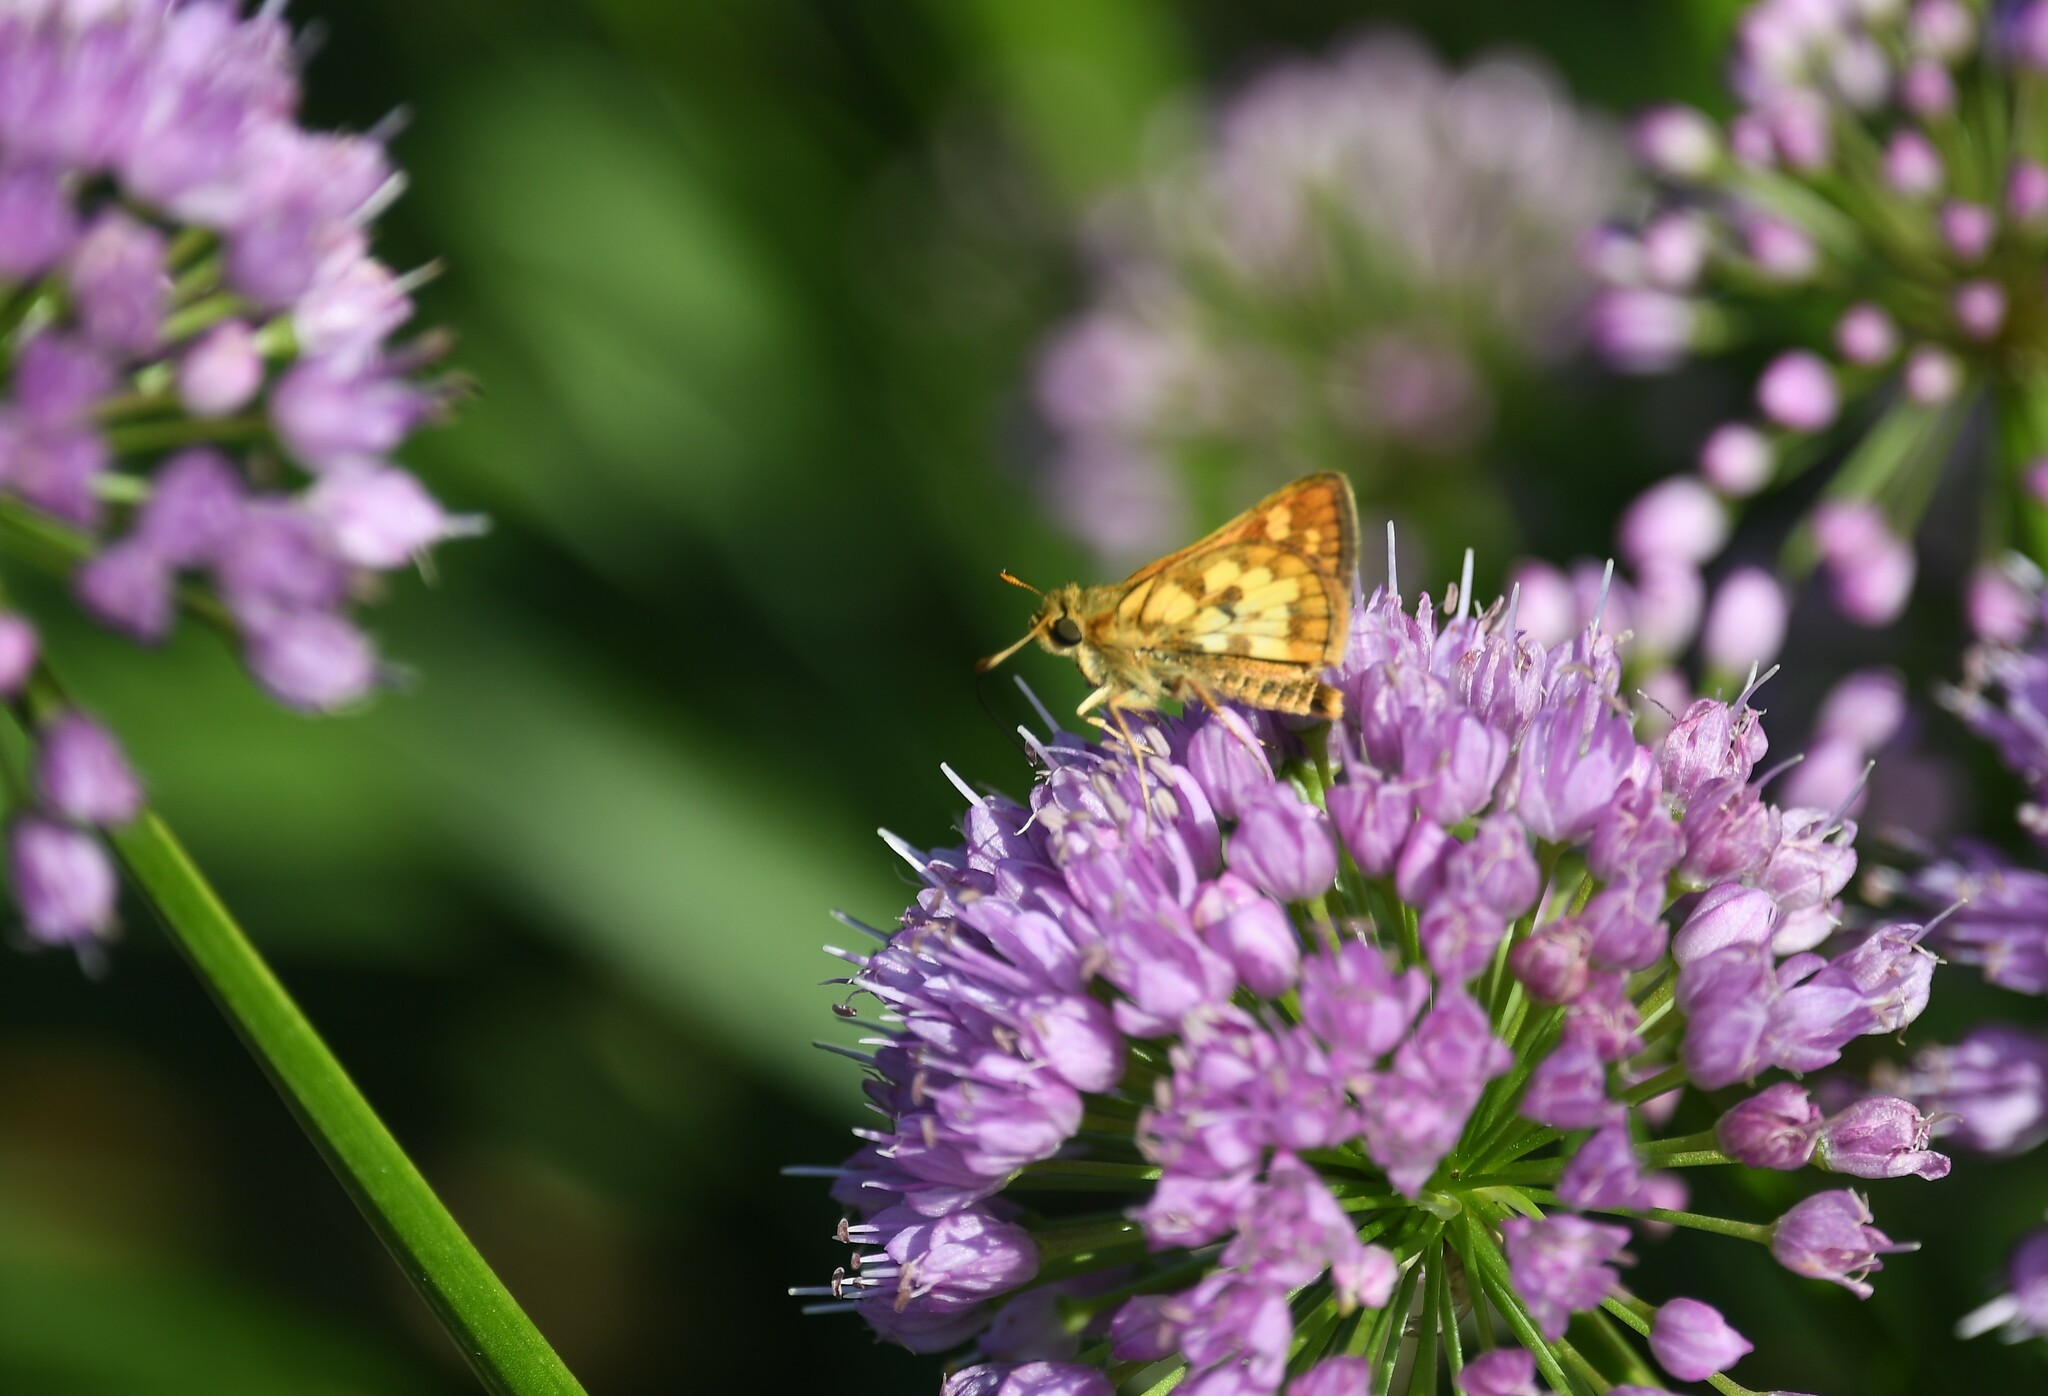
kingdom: Animalia
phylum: Arthropoda
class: Insecta
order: Lepidoptera
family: Hesperiidae
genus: Polites
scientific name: Polites coras
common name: Peck's skipper
